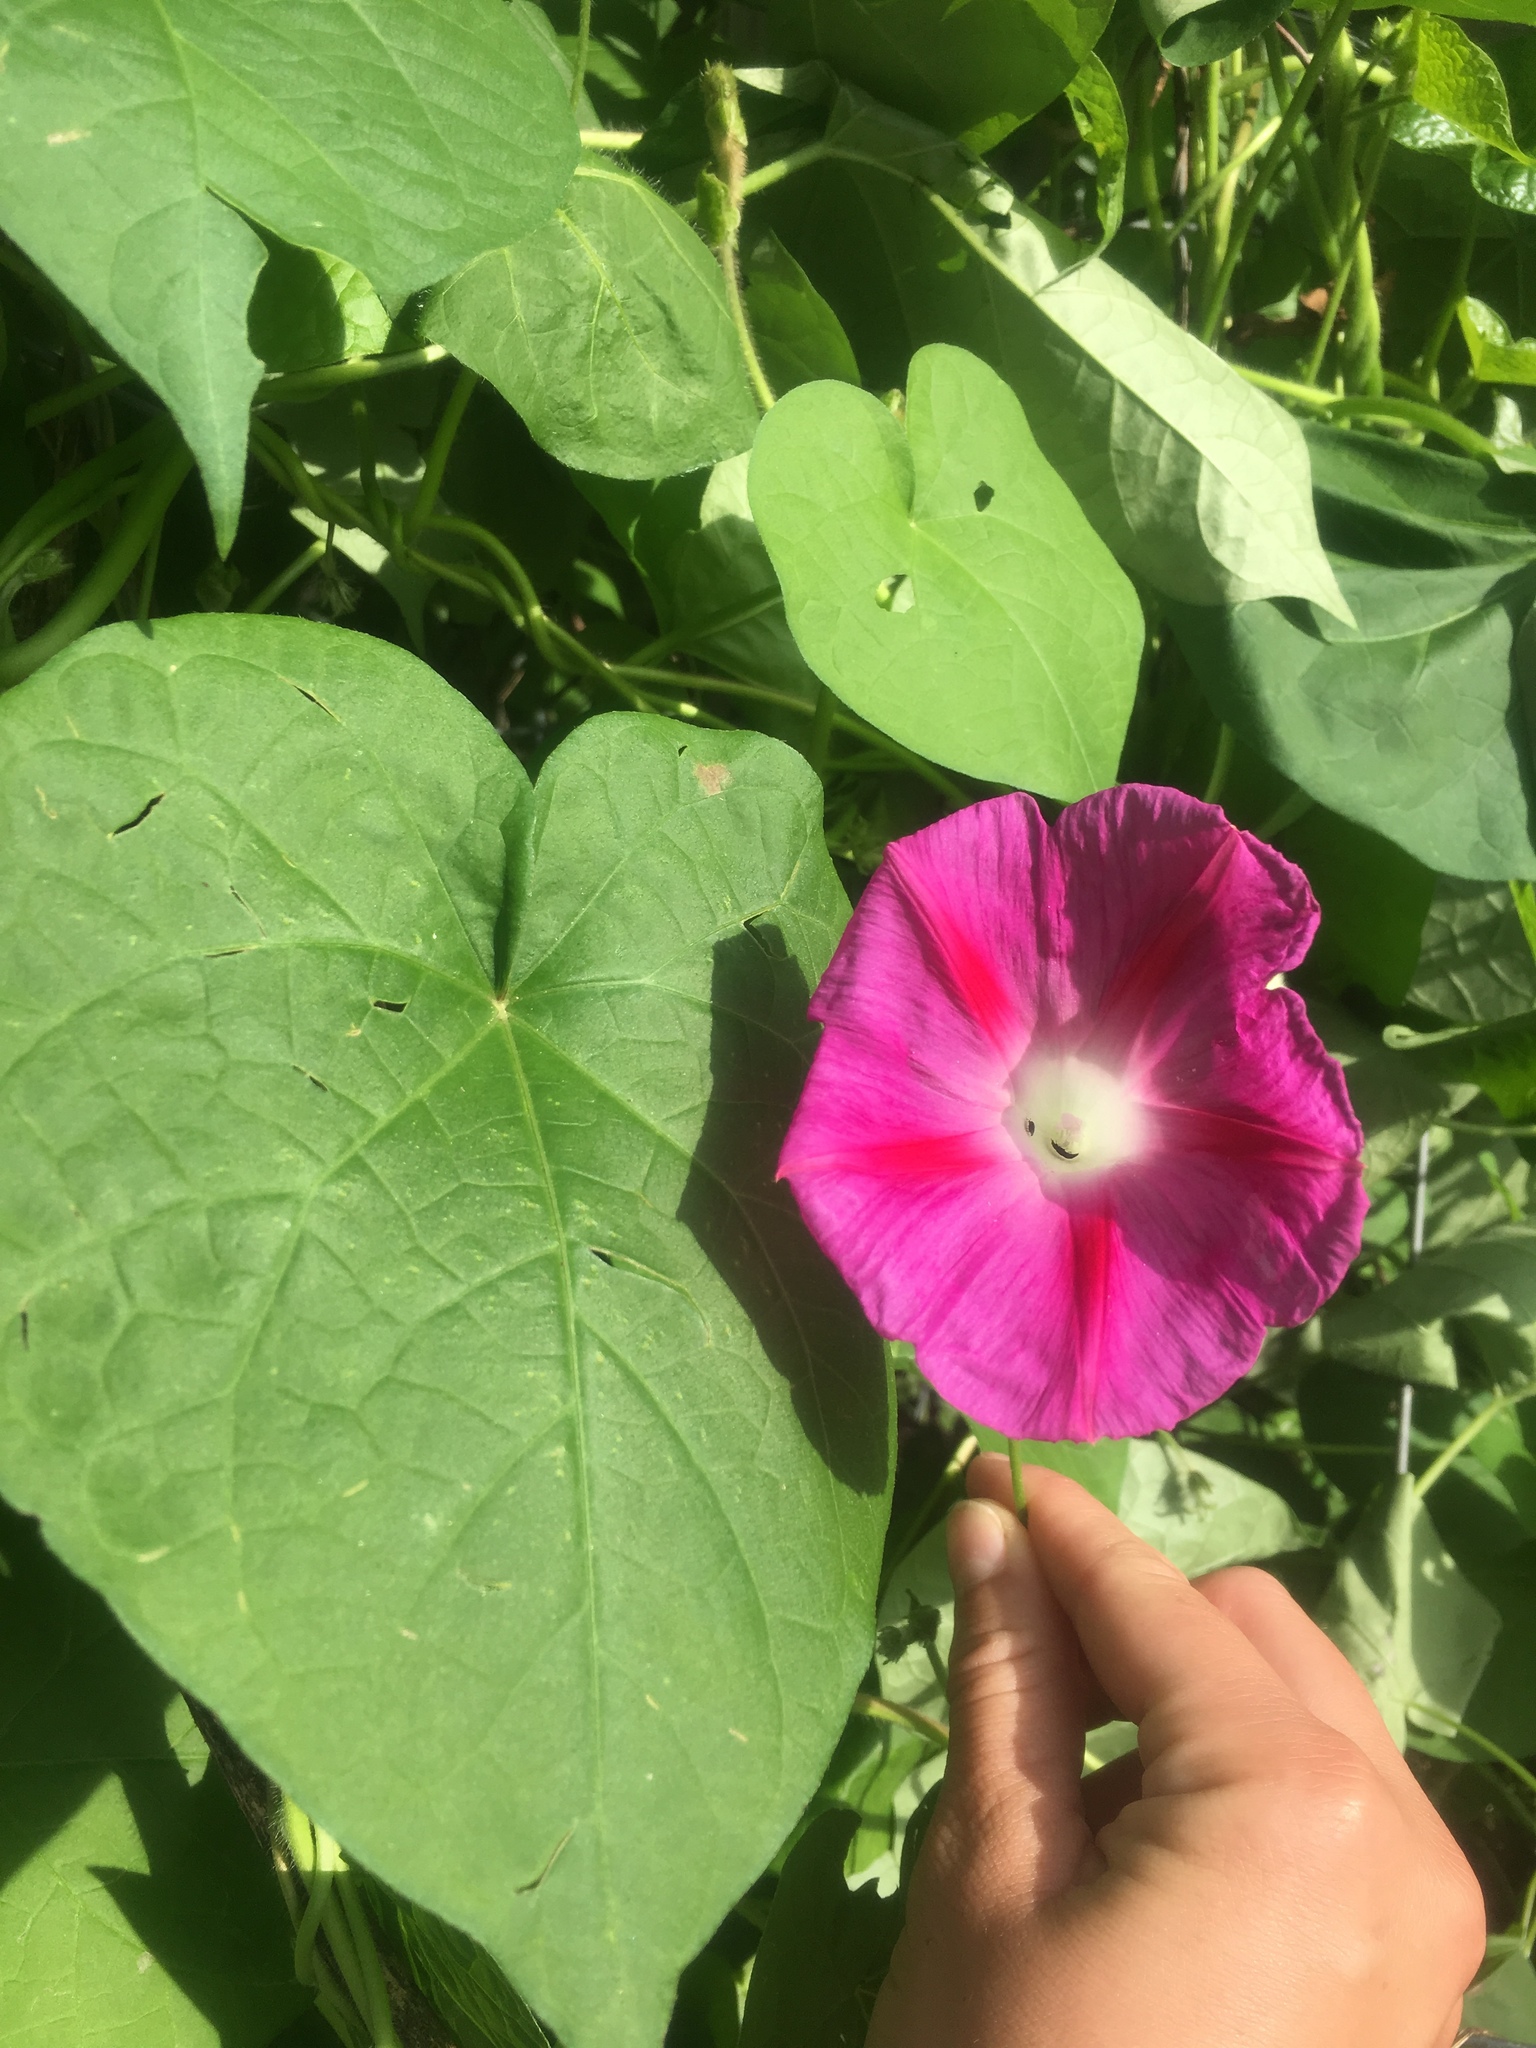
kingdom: Plantae
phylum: Tracheophyta
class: Magnoliopsida
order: Solanales
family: Convolvulaceae
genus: Ipomoea
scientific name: Ipomoea purpurea
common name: Common morning-glory
